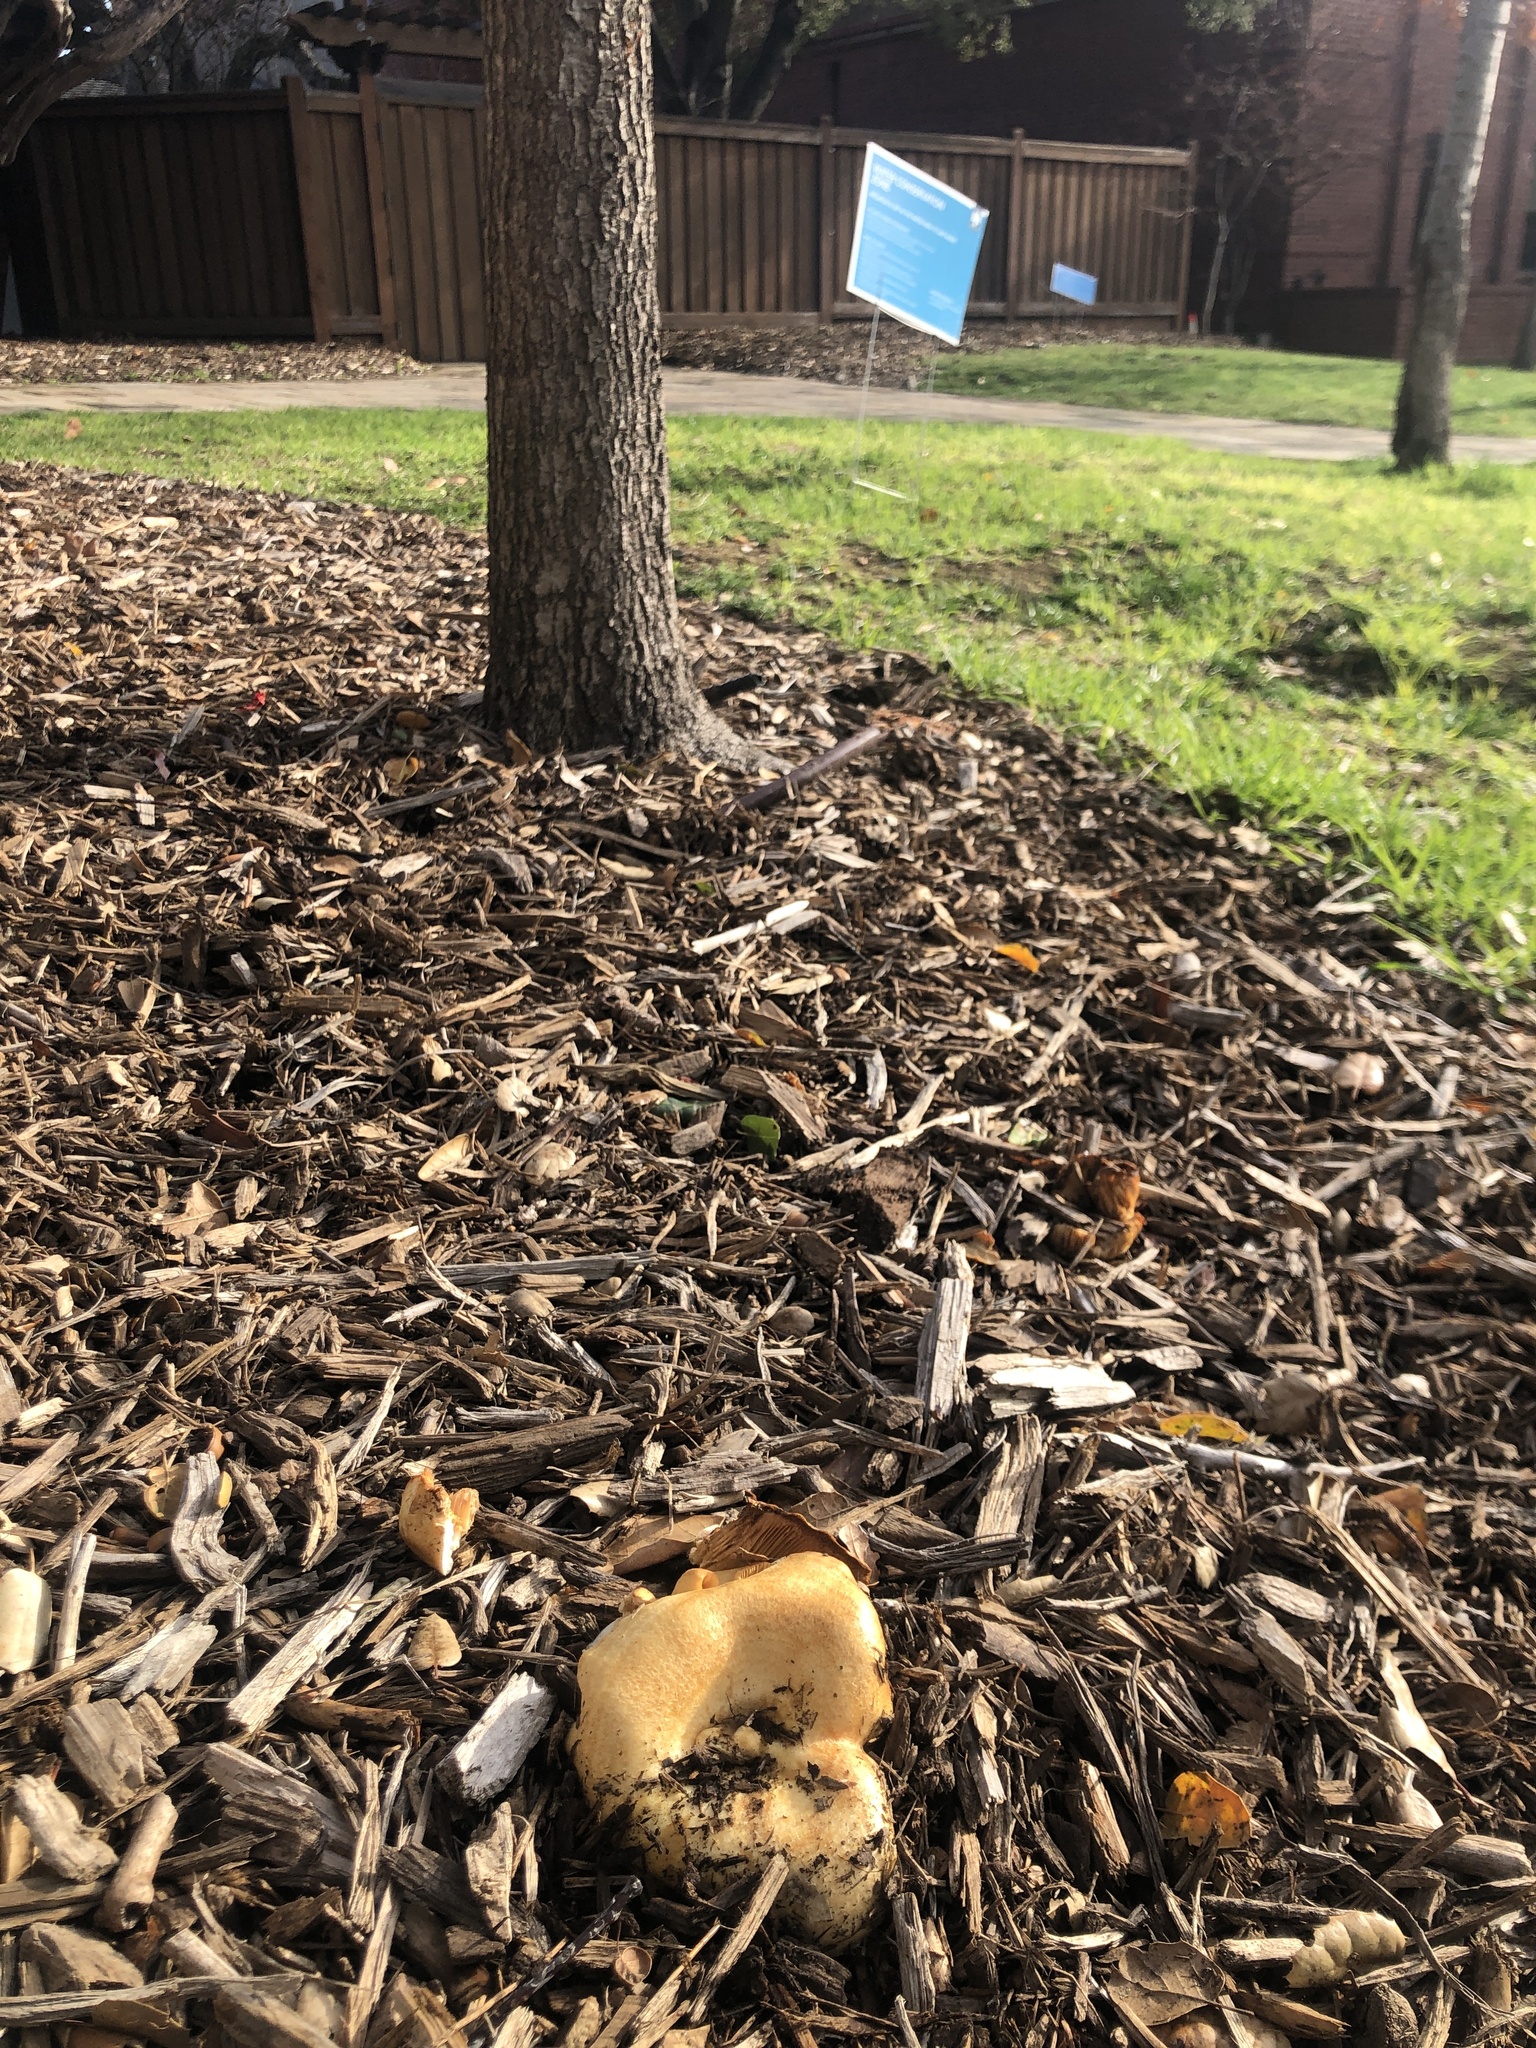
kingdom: Fungi
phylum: Basidiomycota
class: Agaricomycetes
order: Russulales
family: Russulaceae
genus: Lactarius
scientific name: Lactarius alnicola
